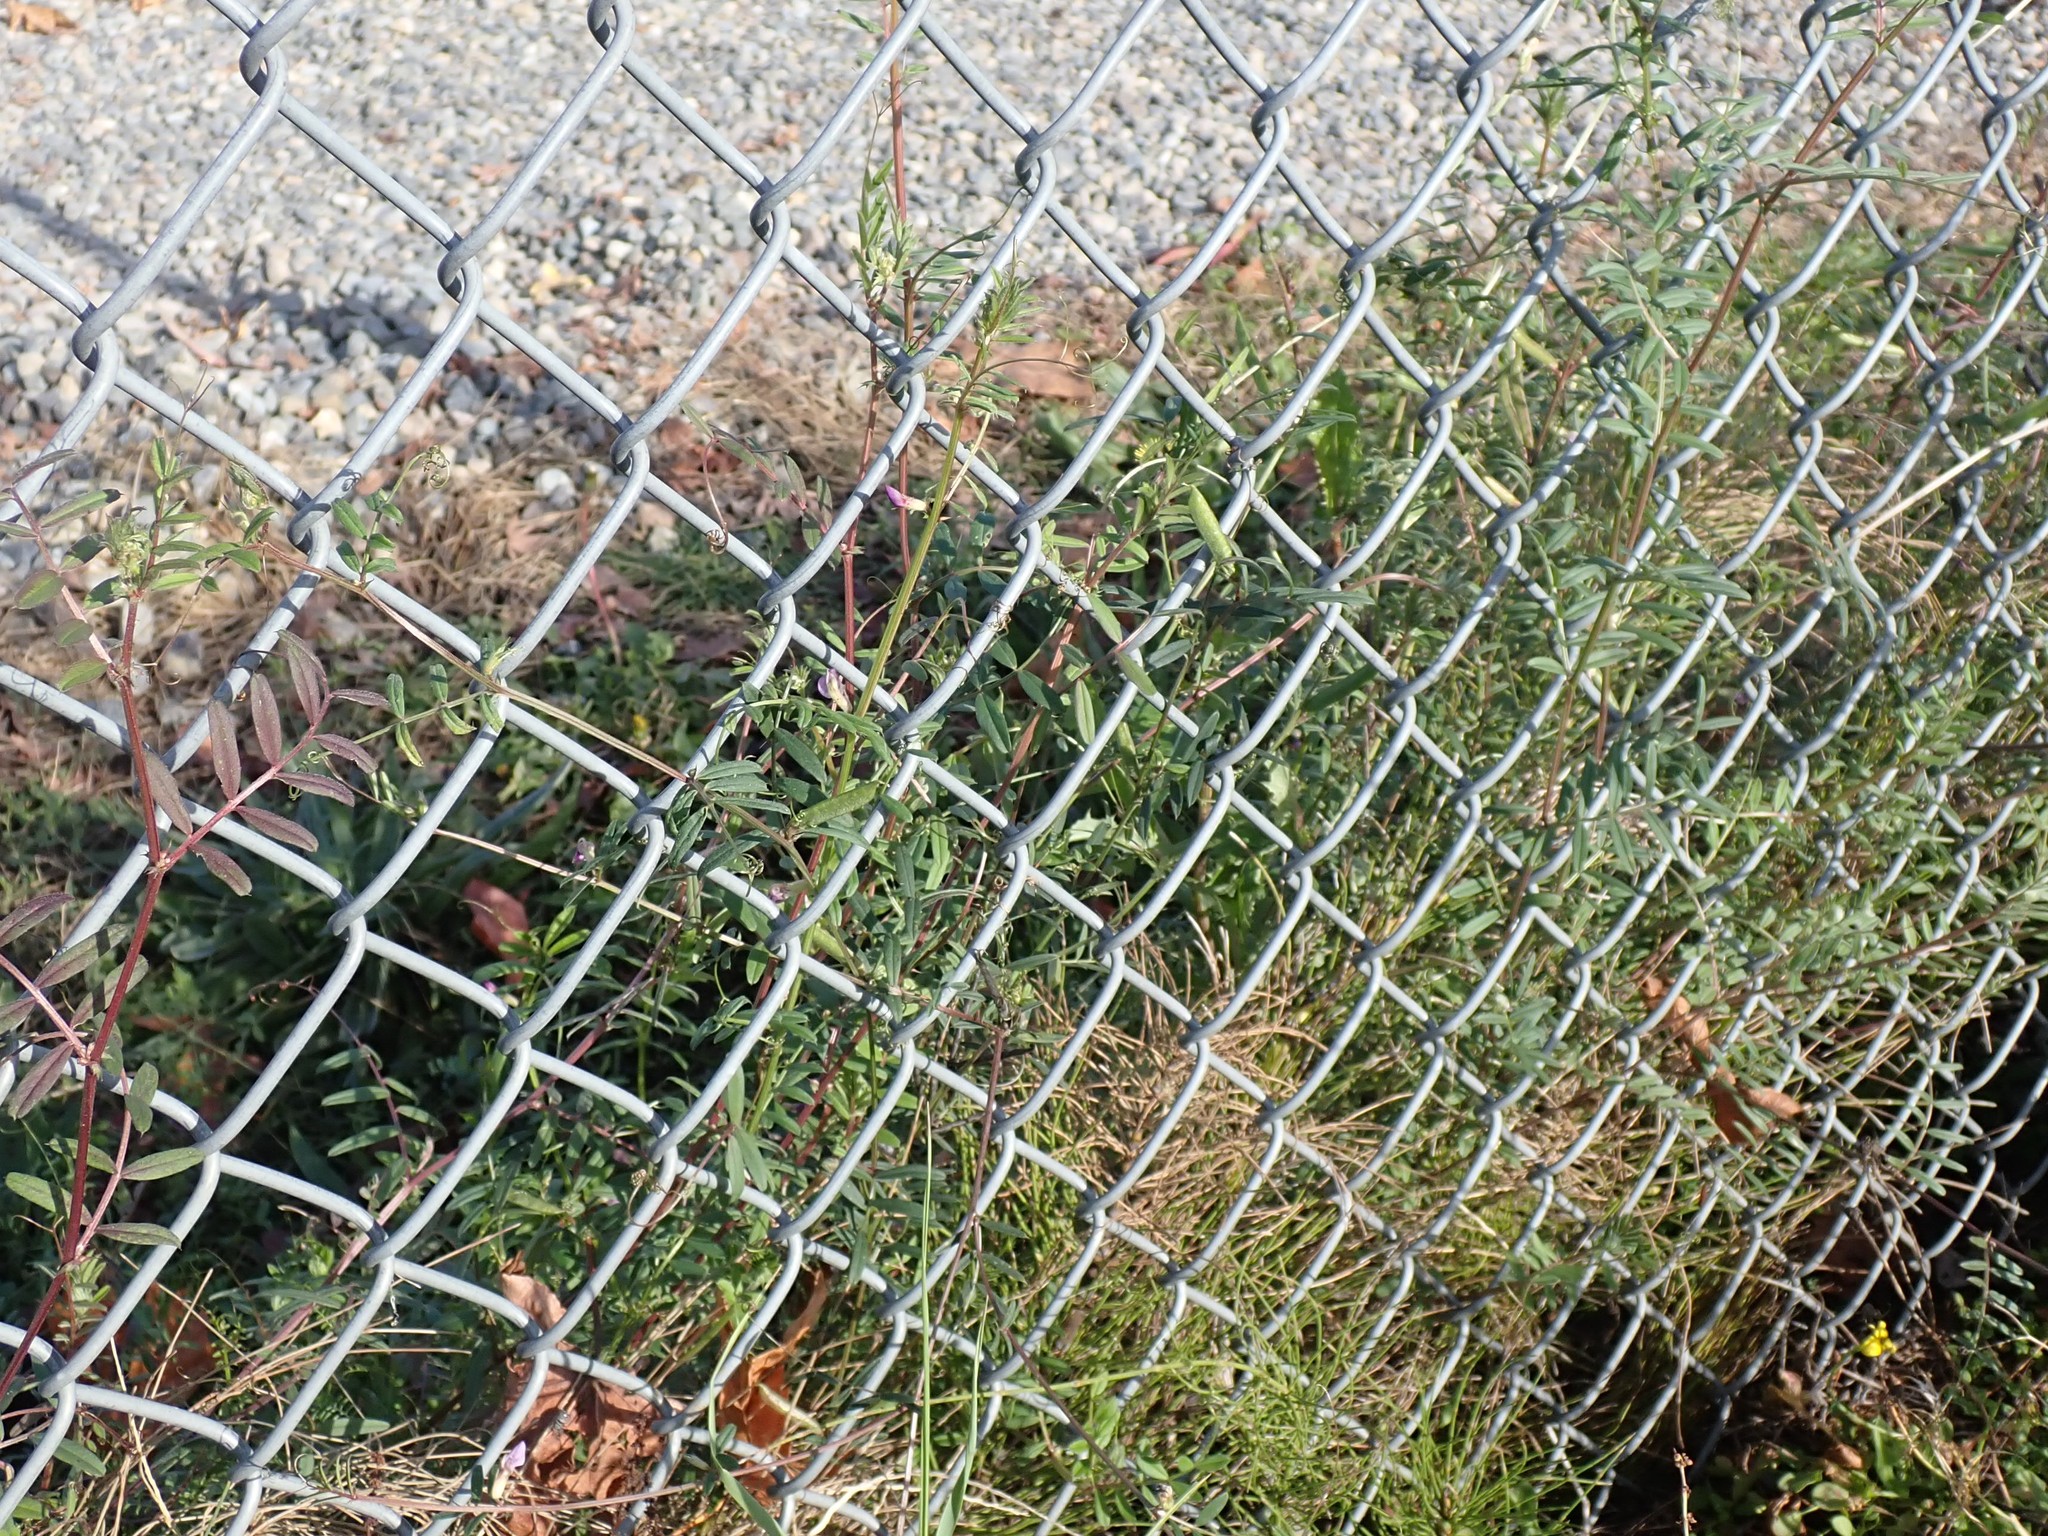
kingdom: Plantae
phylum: Tracheophyta
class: Magnoliopsida
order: Fabales
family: Fabaceae
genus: Vicia
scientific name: Vicia sativa
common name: Garden vetch
